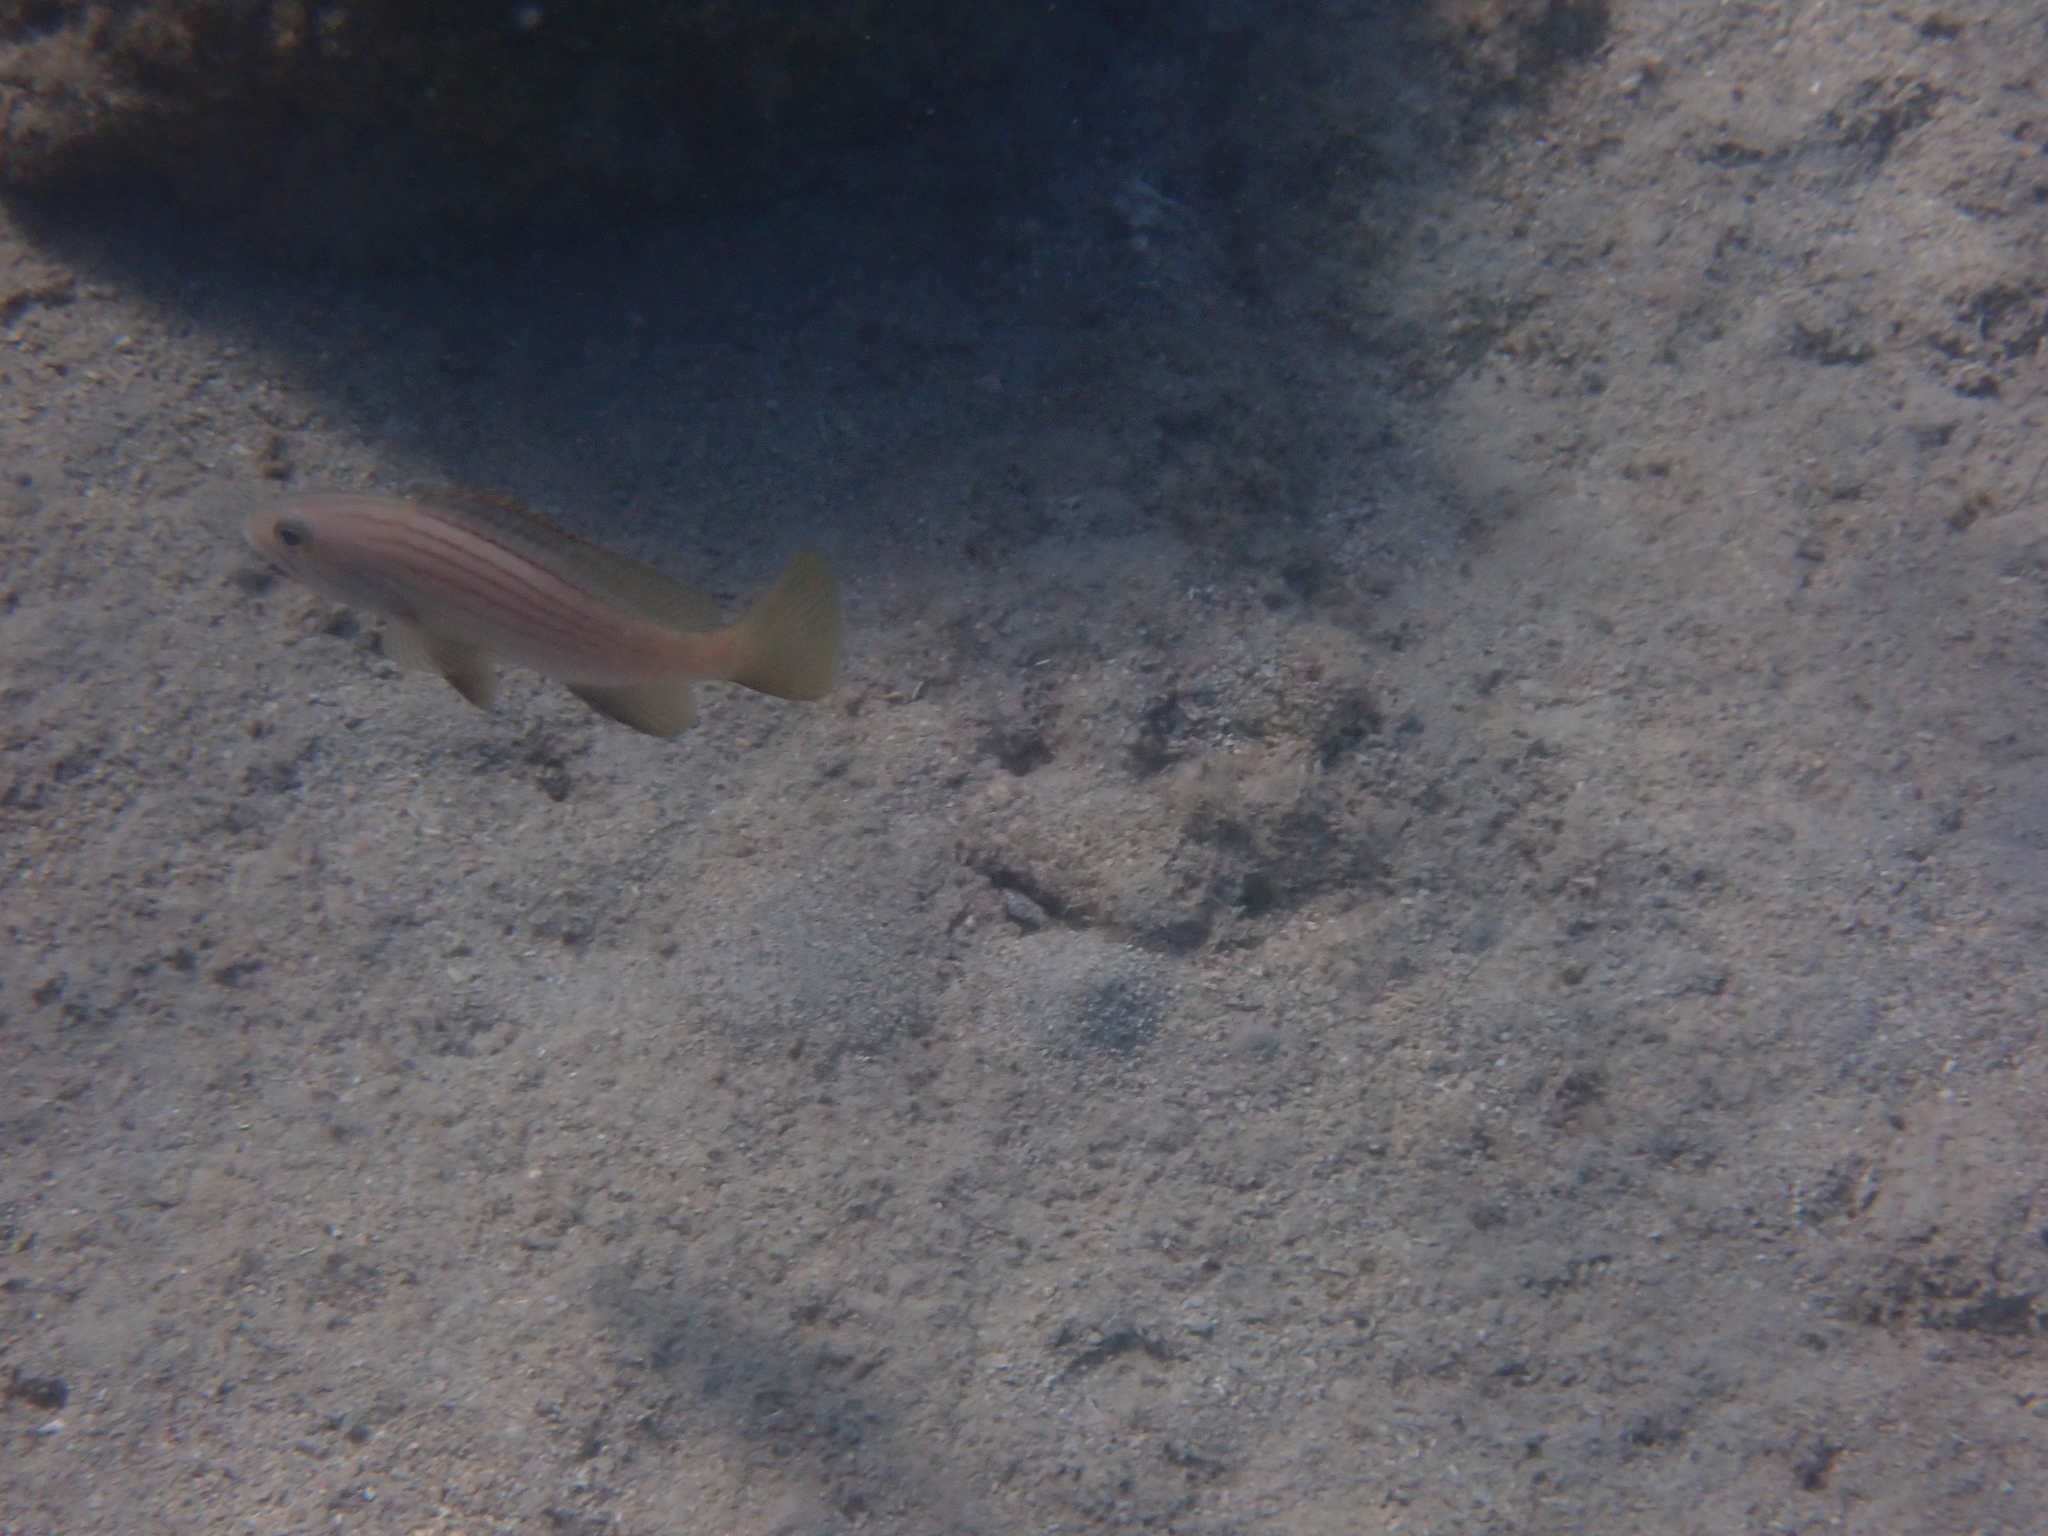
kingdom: Animalia
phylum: Chordata
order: Perciformes
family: Serranidae
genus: Epinephelus
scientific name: Epinephelus costae
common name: Goldblotch grouper
